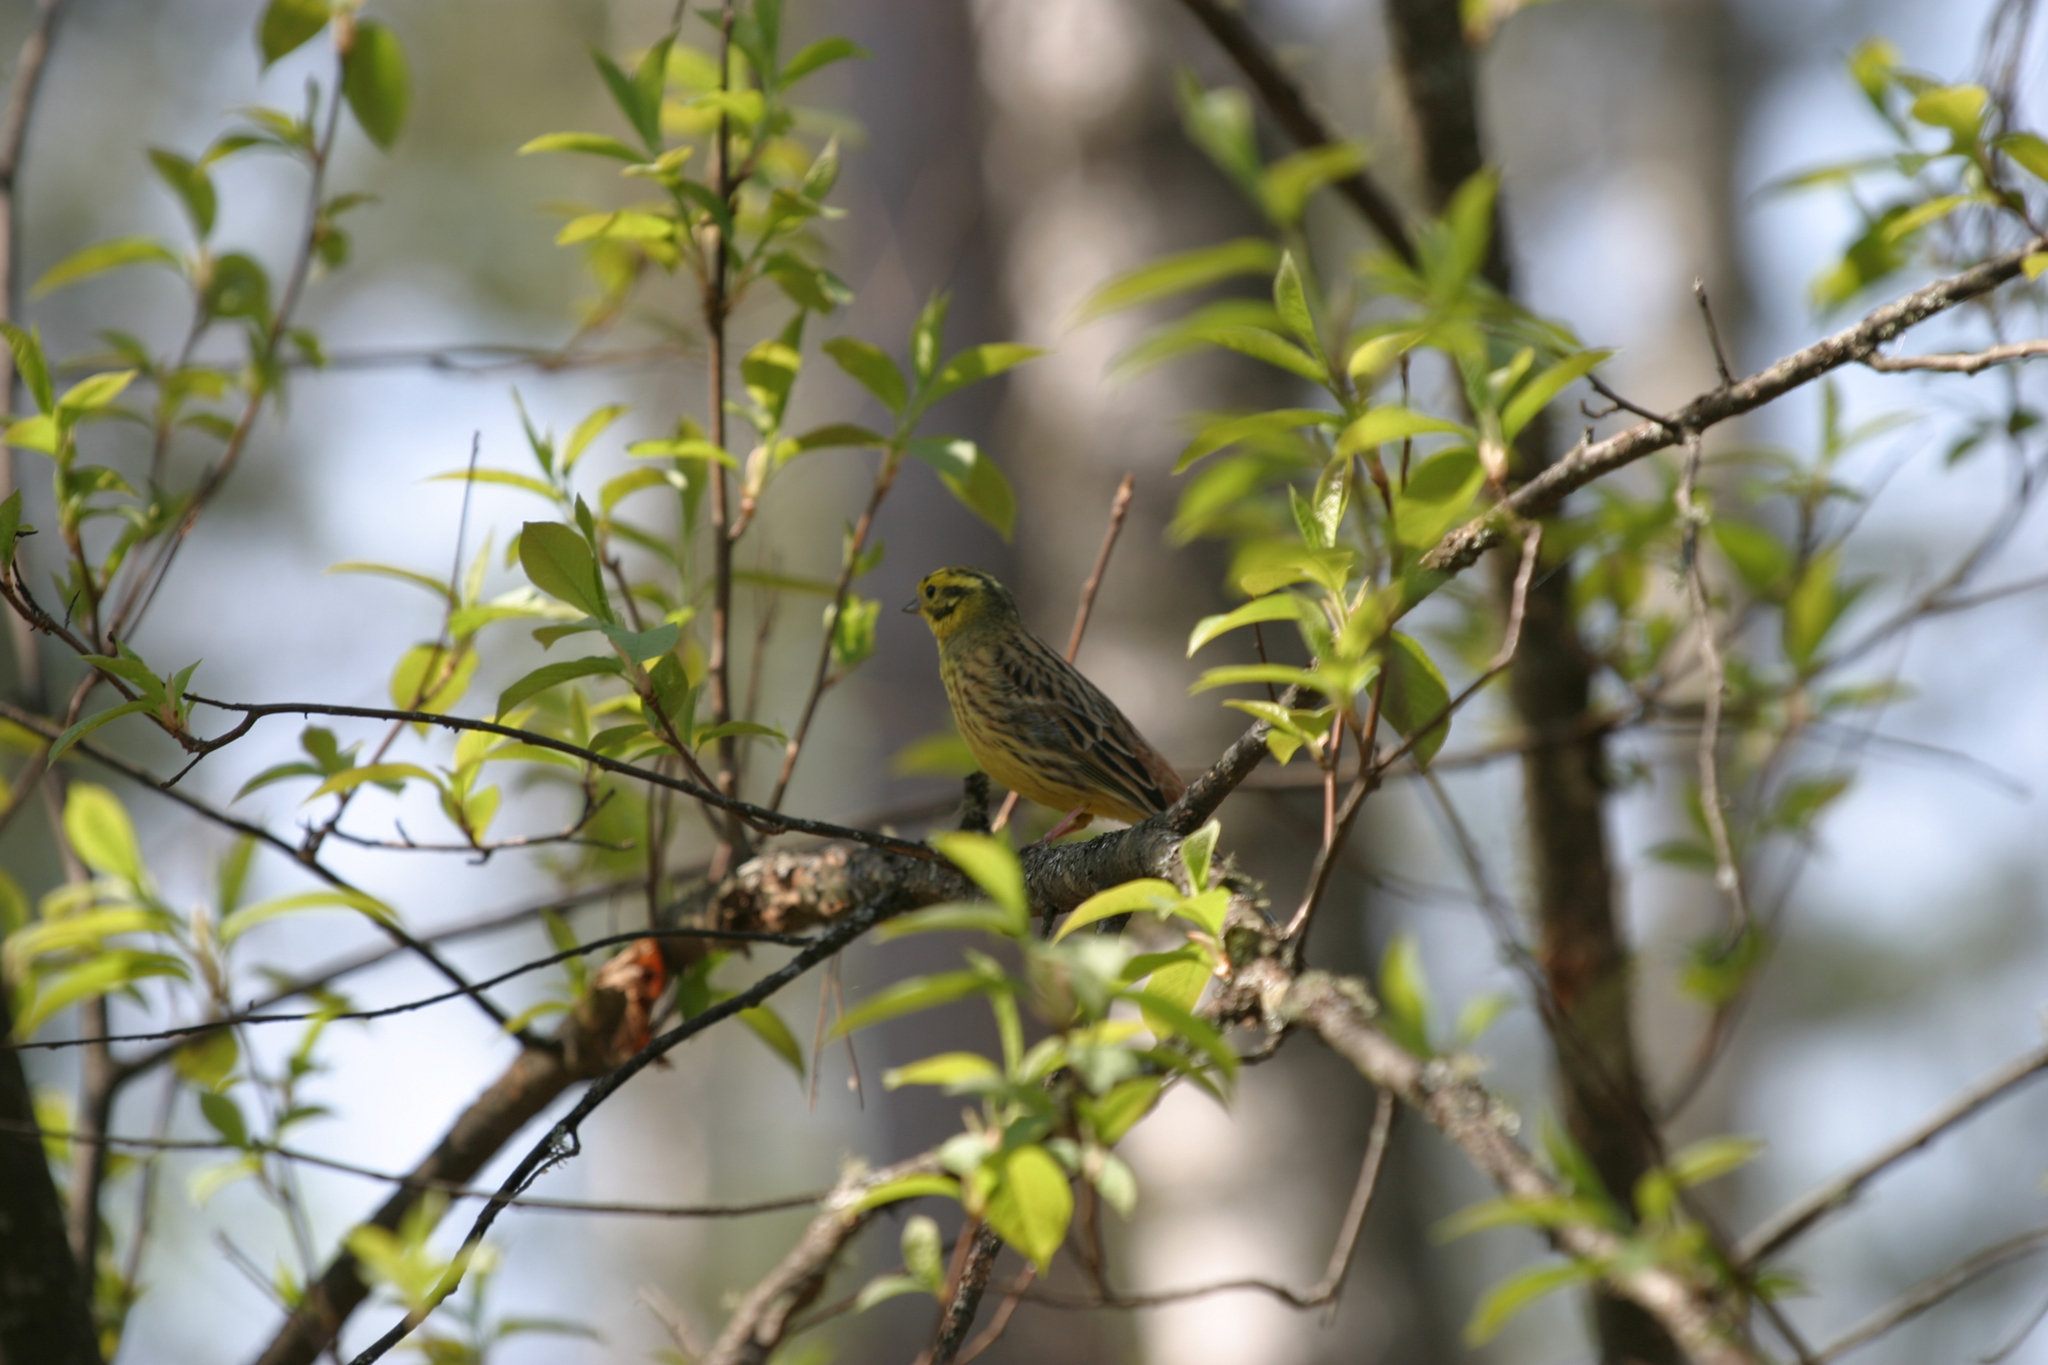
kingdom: Animalia
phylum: Chordata
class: Aves
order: Passeriformes
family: Emberizidae
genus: Emberiza
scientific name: Emberiza citrinella
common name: Yellowhammer
